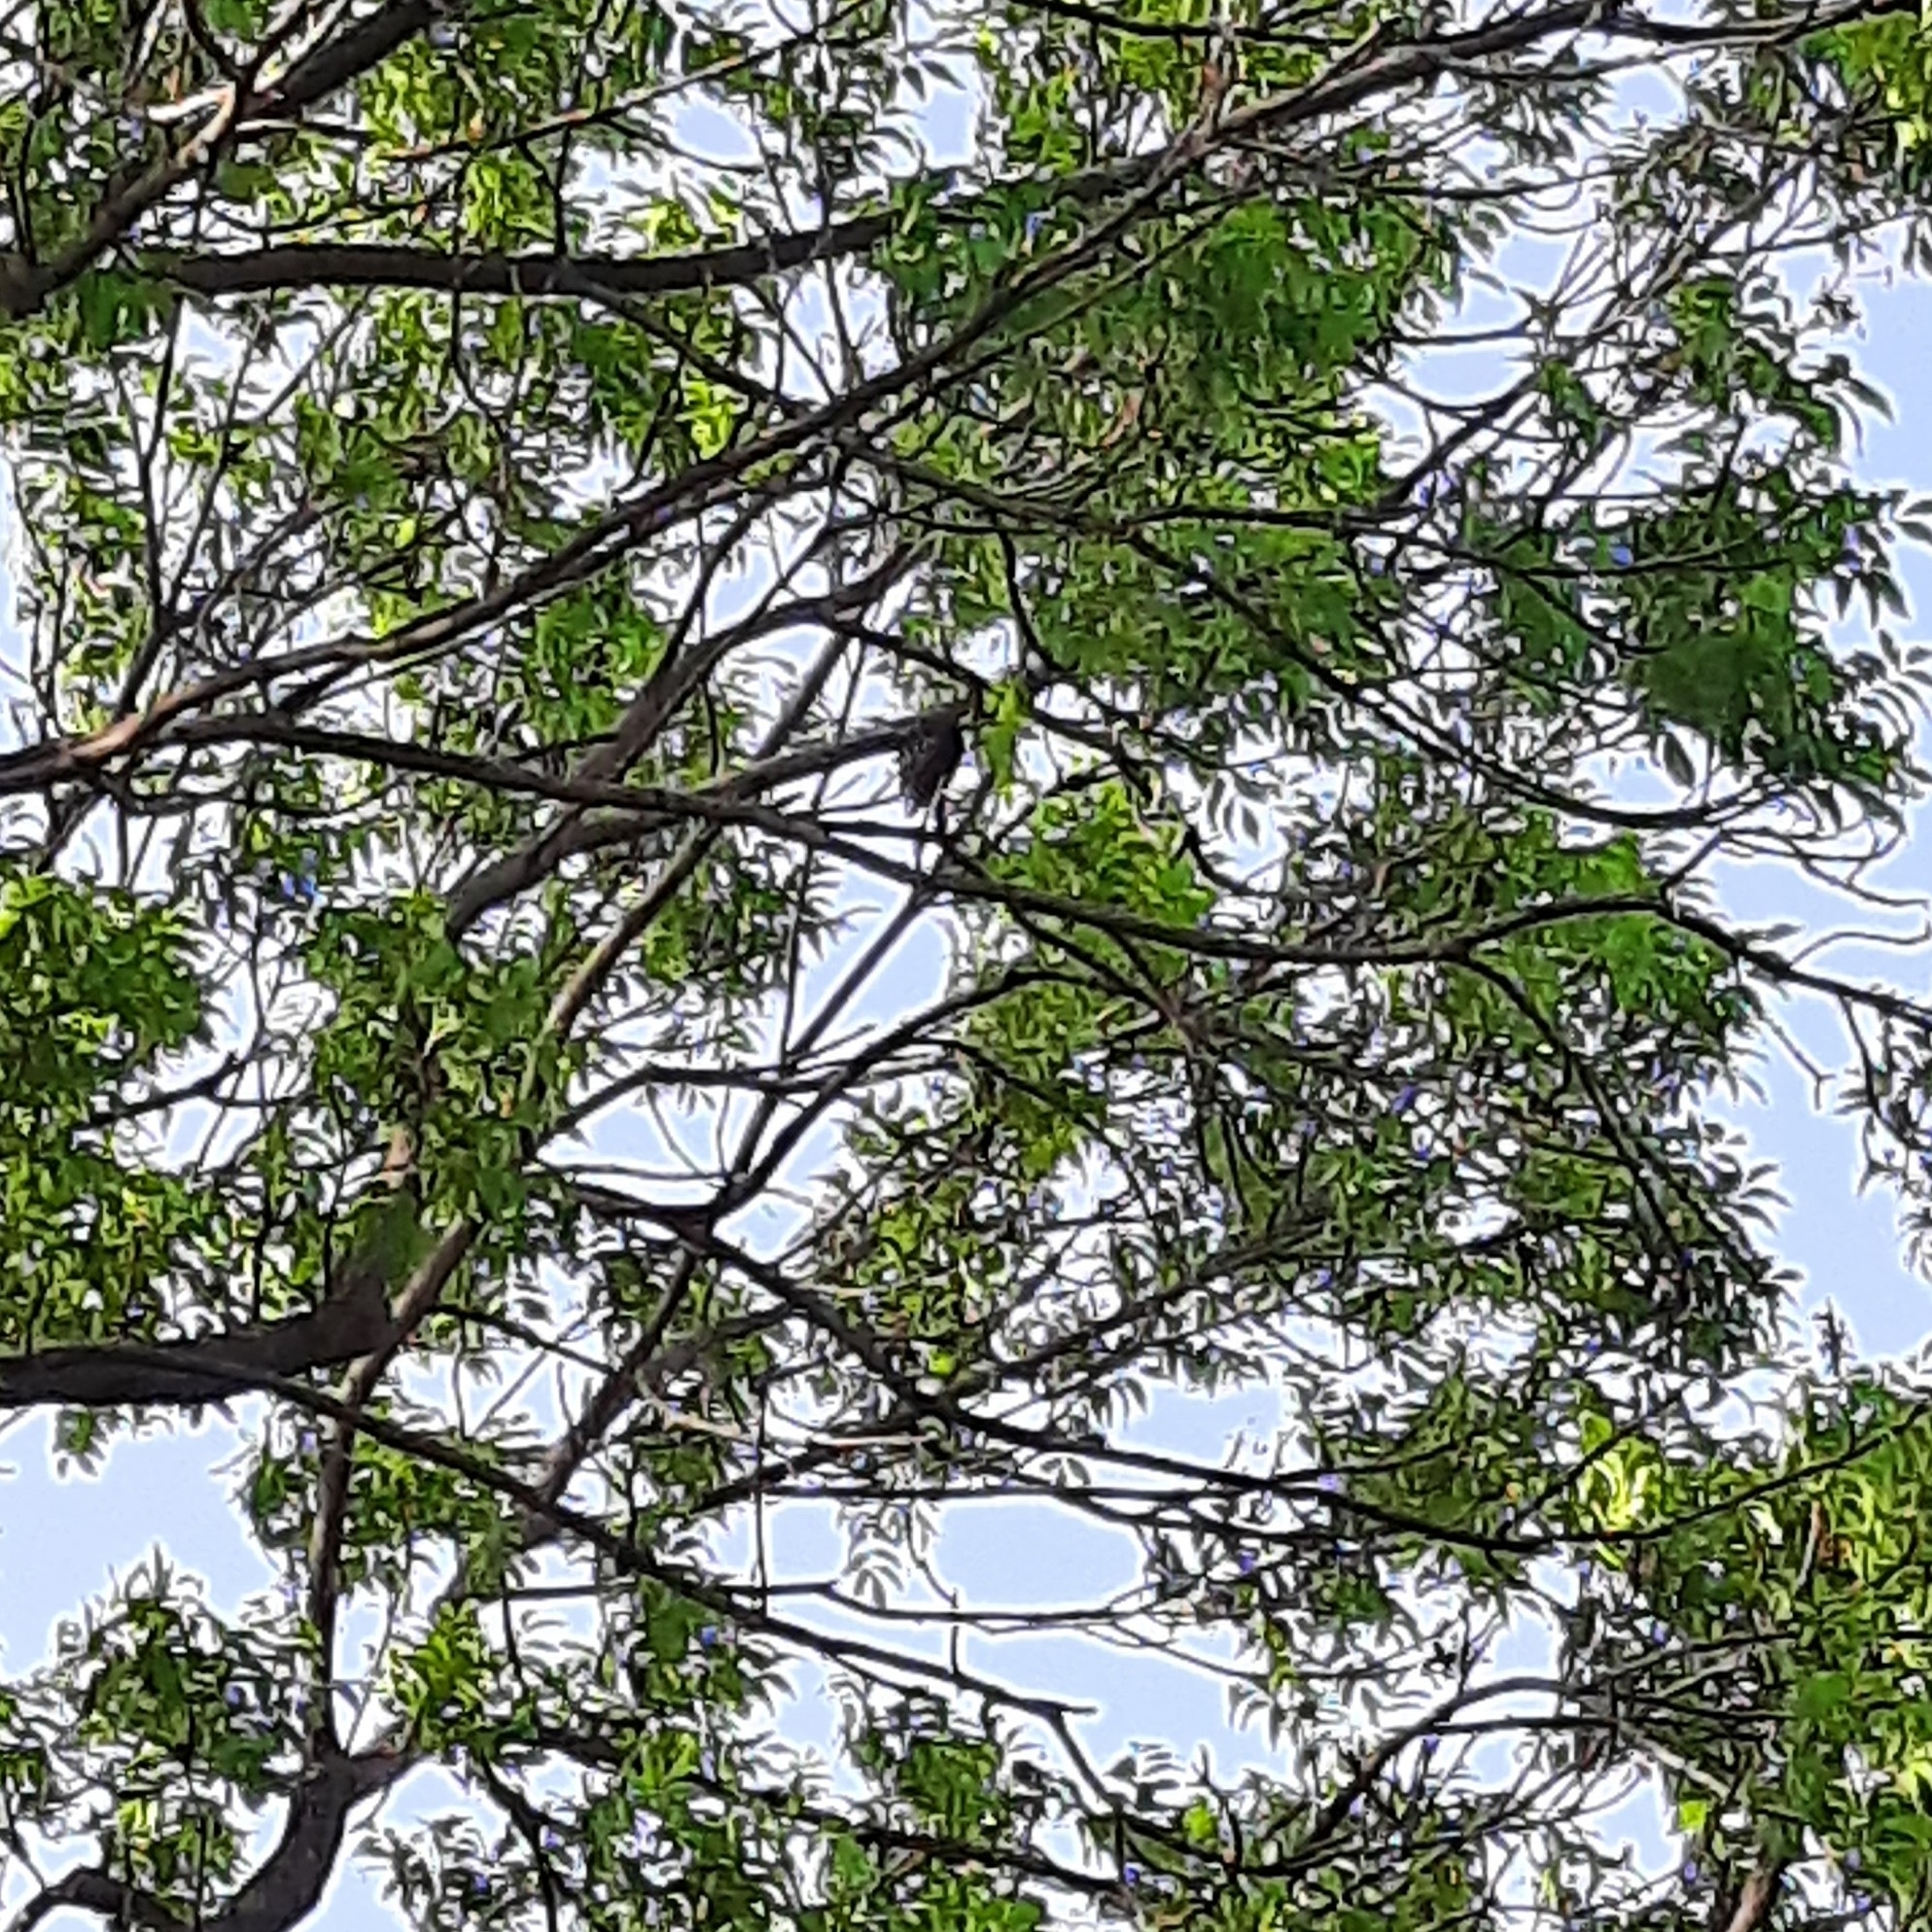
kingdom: Animalia
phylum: Chordata
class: Aves
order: Passeriformes
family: Sturnidae
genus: Sturnus
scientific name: Sturnus vulgaris
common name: Common starling
